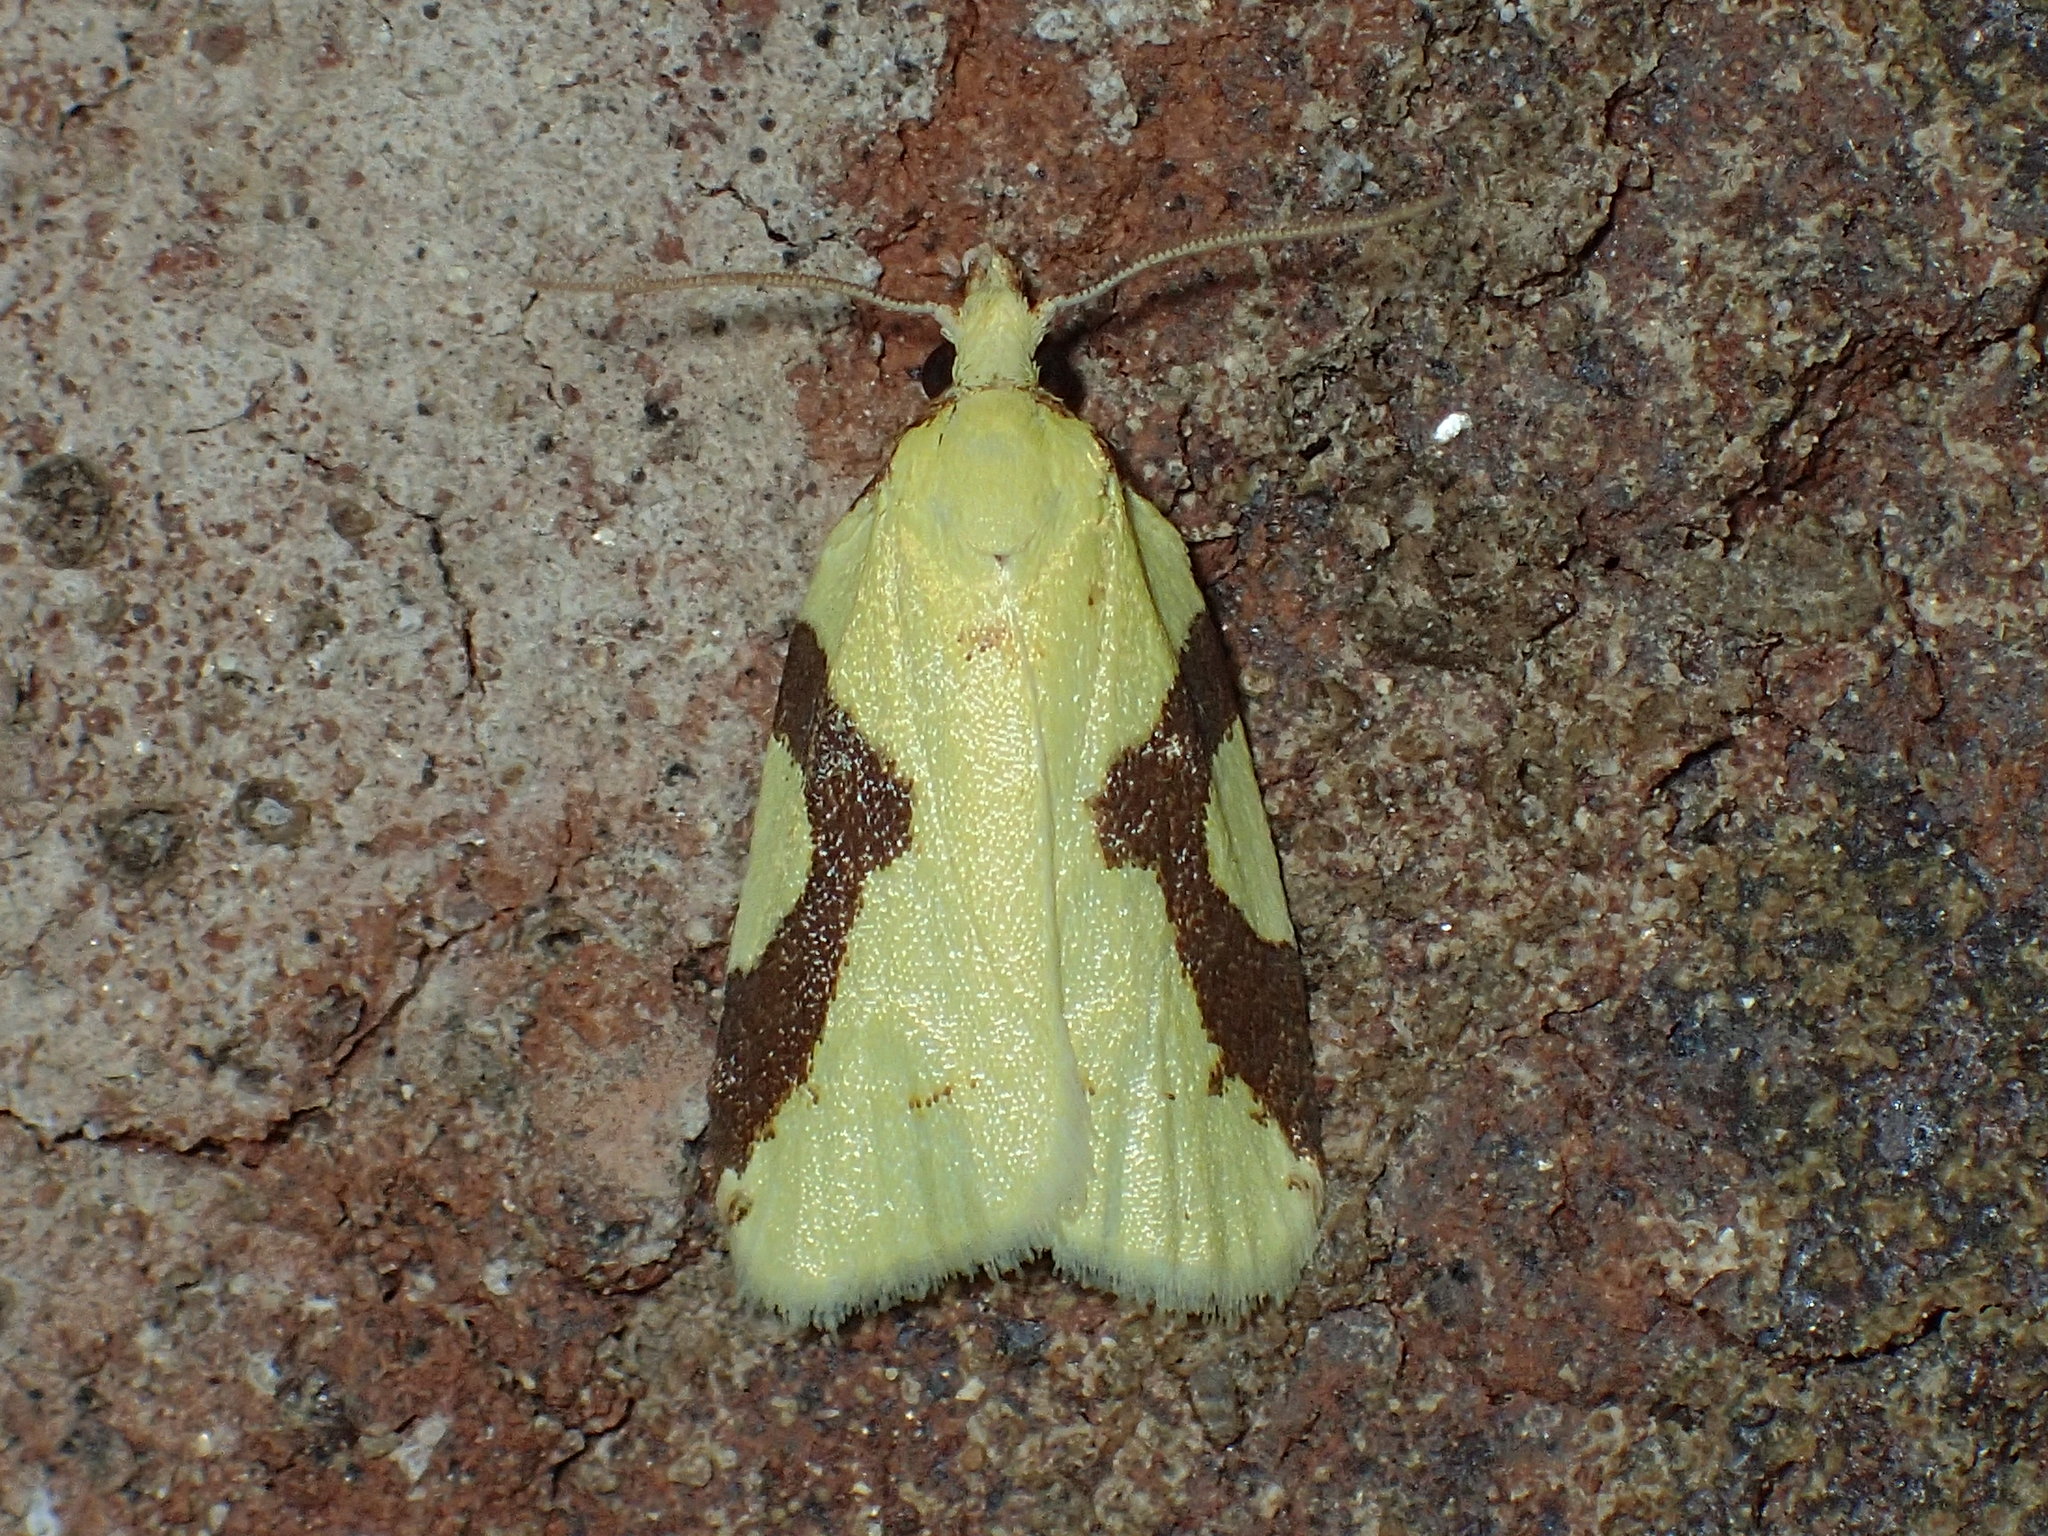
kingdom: Animalia
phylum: Arthropoda
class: Insecta
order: Lepidoptera
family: Tortricidae
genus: Cenopis
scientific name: Cenopis niveana
